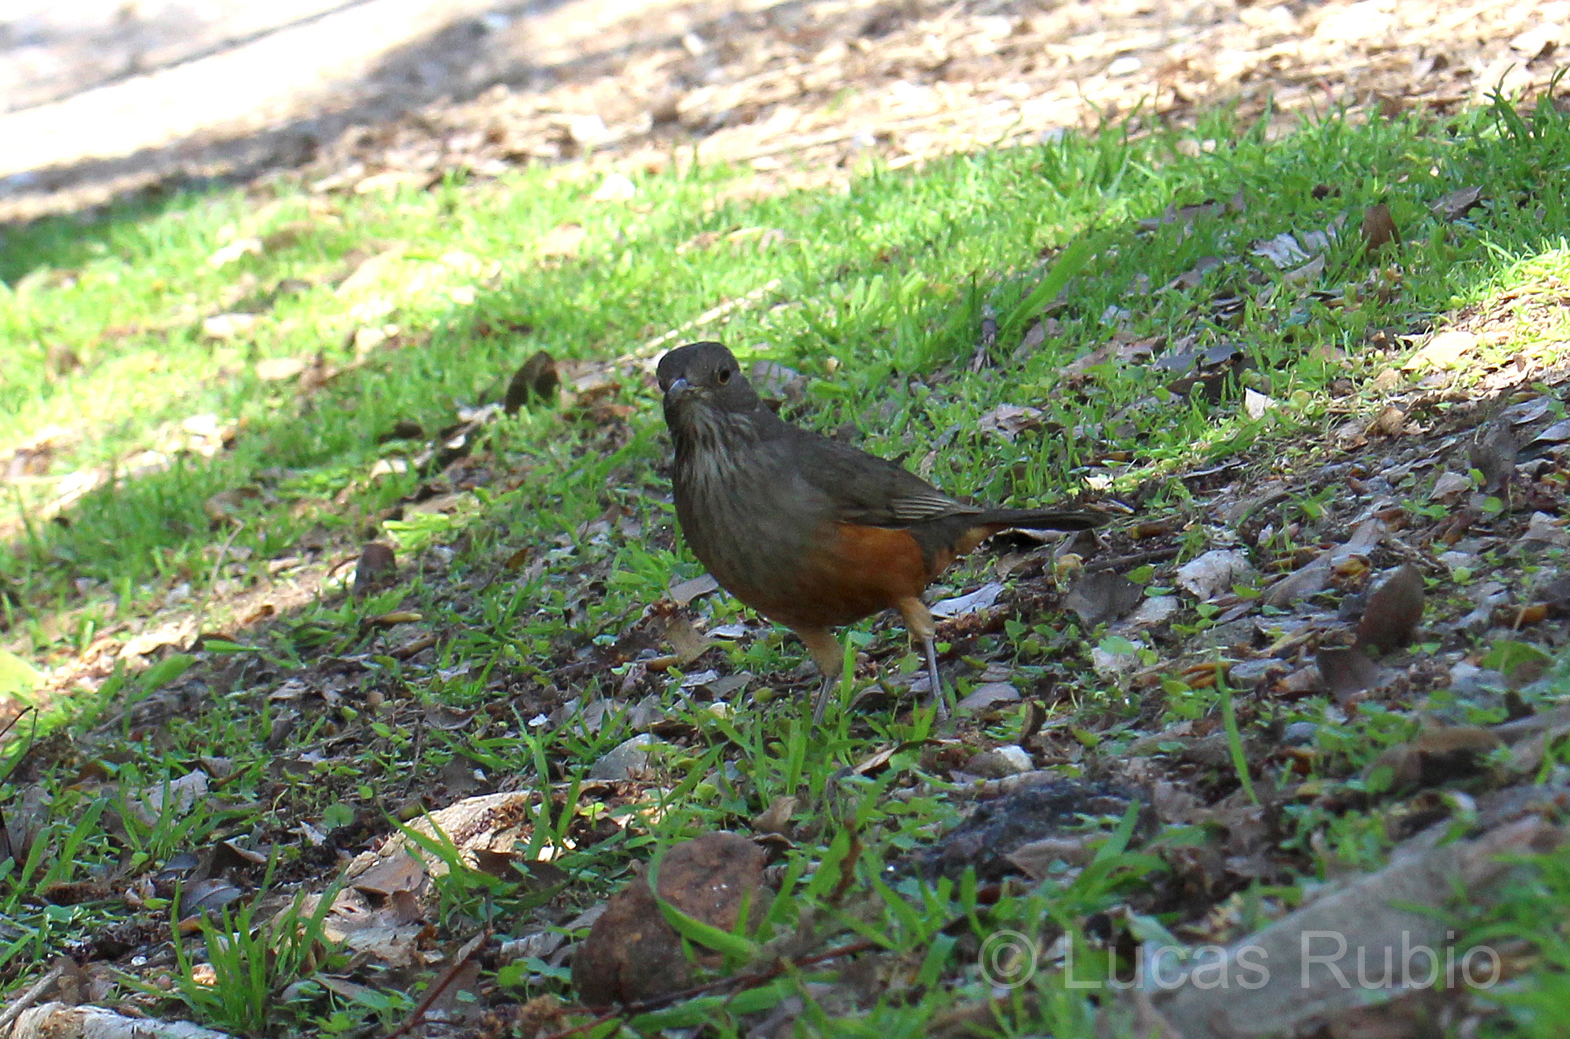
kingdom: Animalia
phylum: Chordata
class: Aves
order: Passeriformes
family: Turdidae
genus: Turdus
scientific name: Turdus rufiventris
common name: Rufous-bellied thrush
